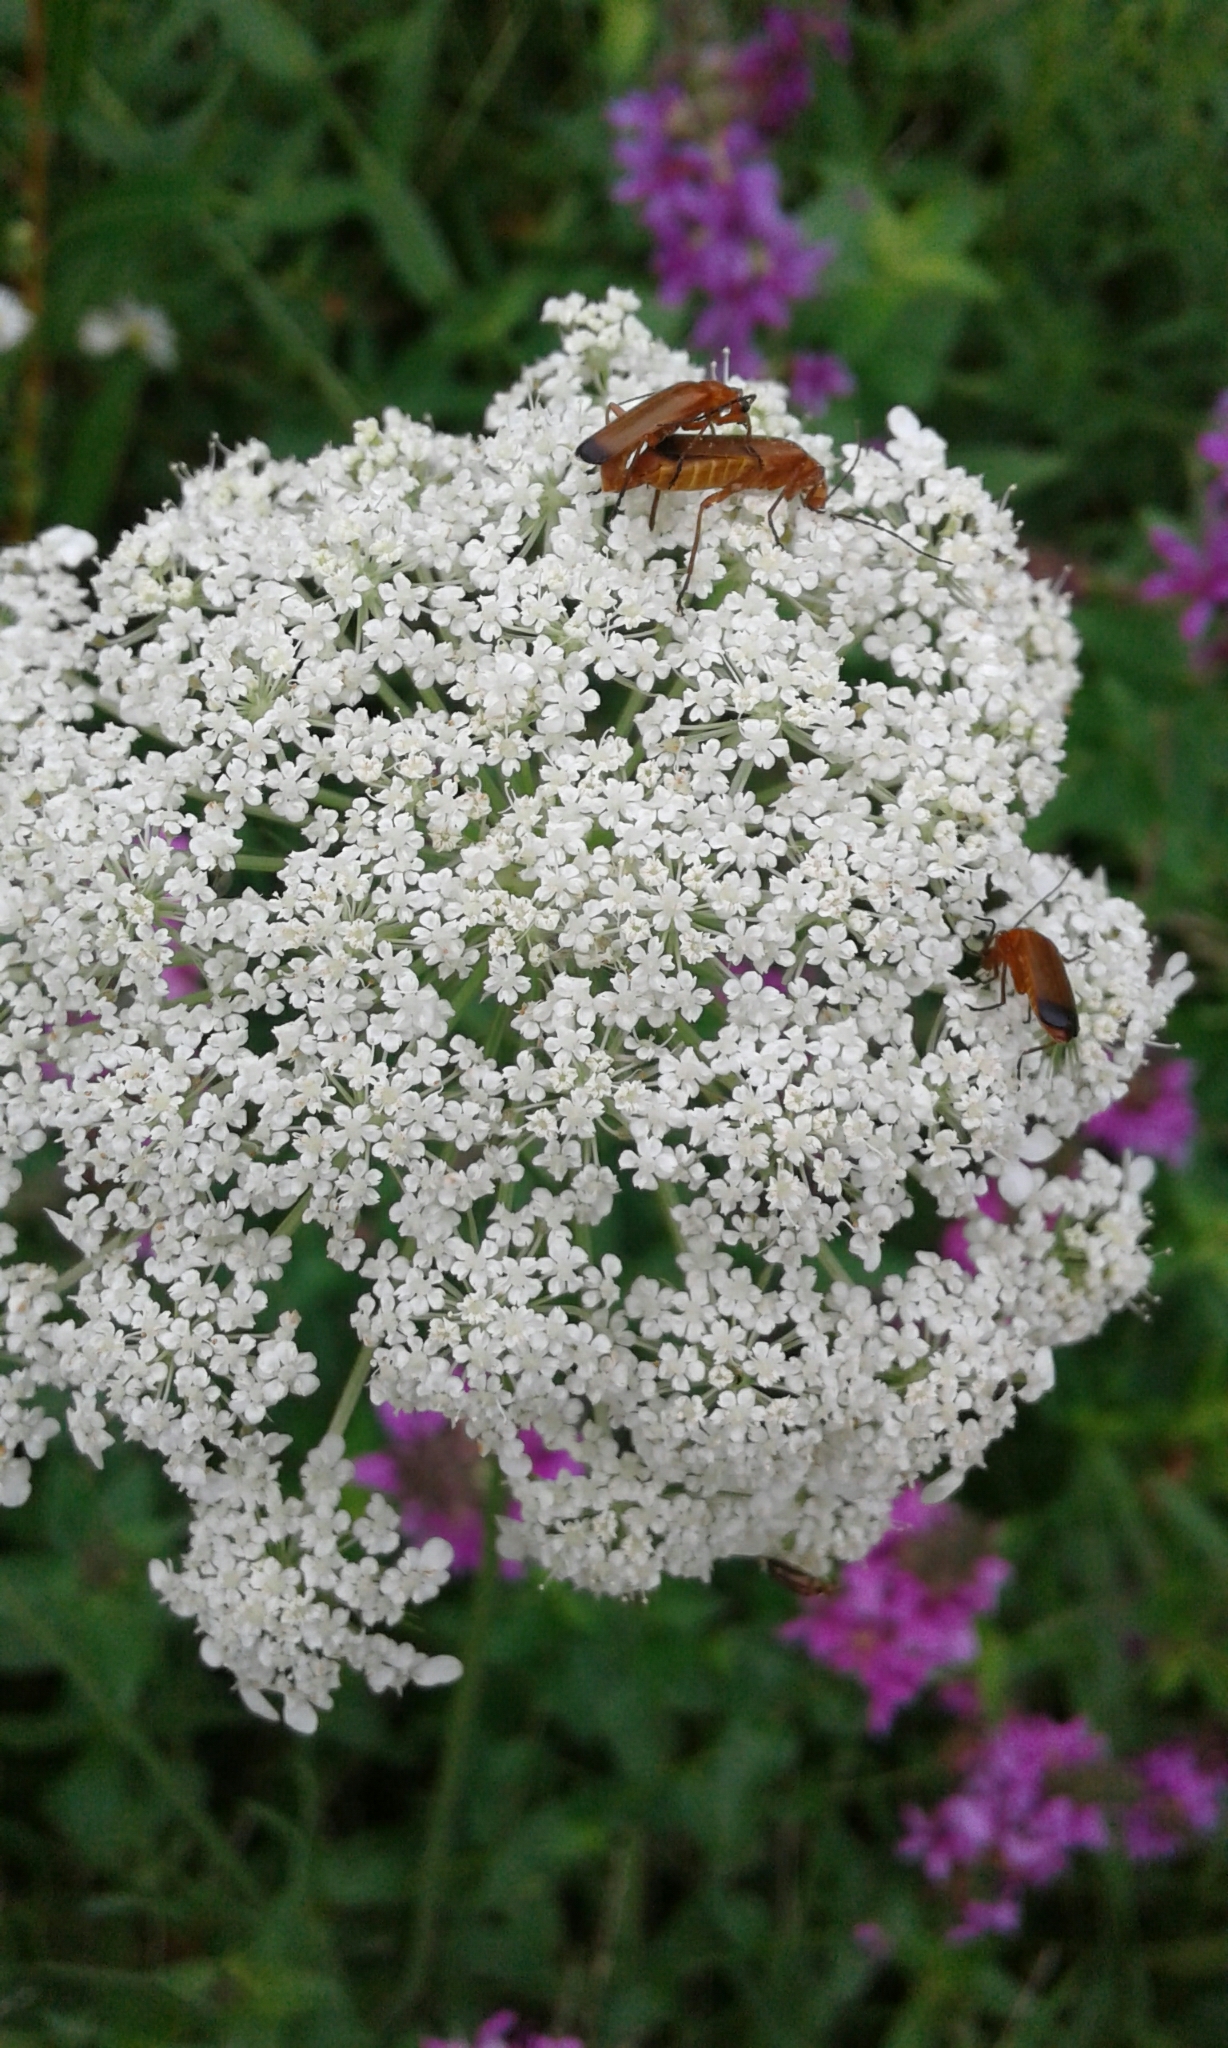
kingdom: Animalia
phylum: Arthropoda
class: Insecta
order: Coleoptera
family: Cantharidae
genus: Rhagonycha
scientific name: Rhagonycha fulva
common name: Common red soldier beetle
